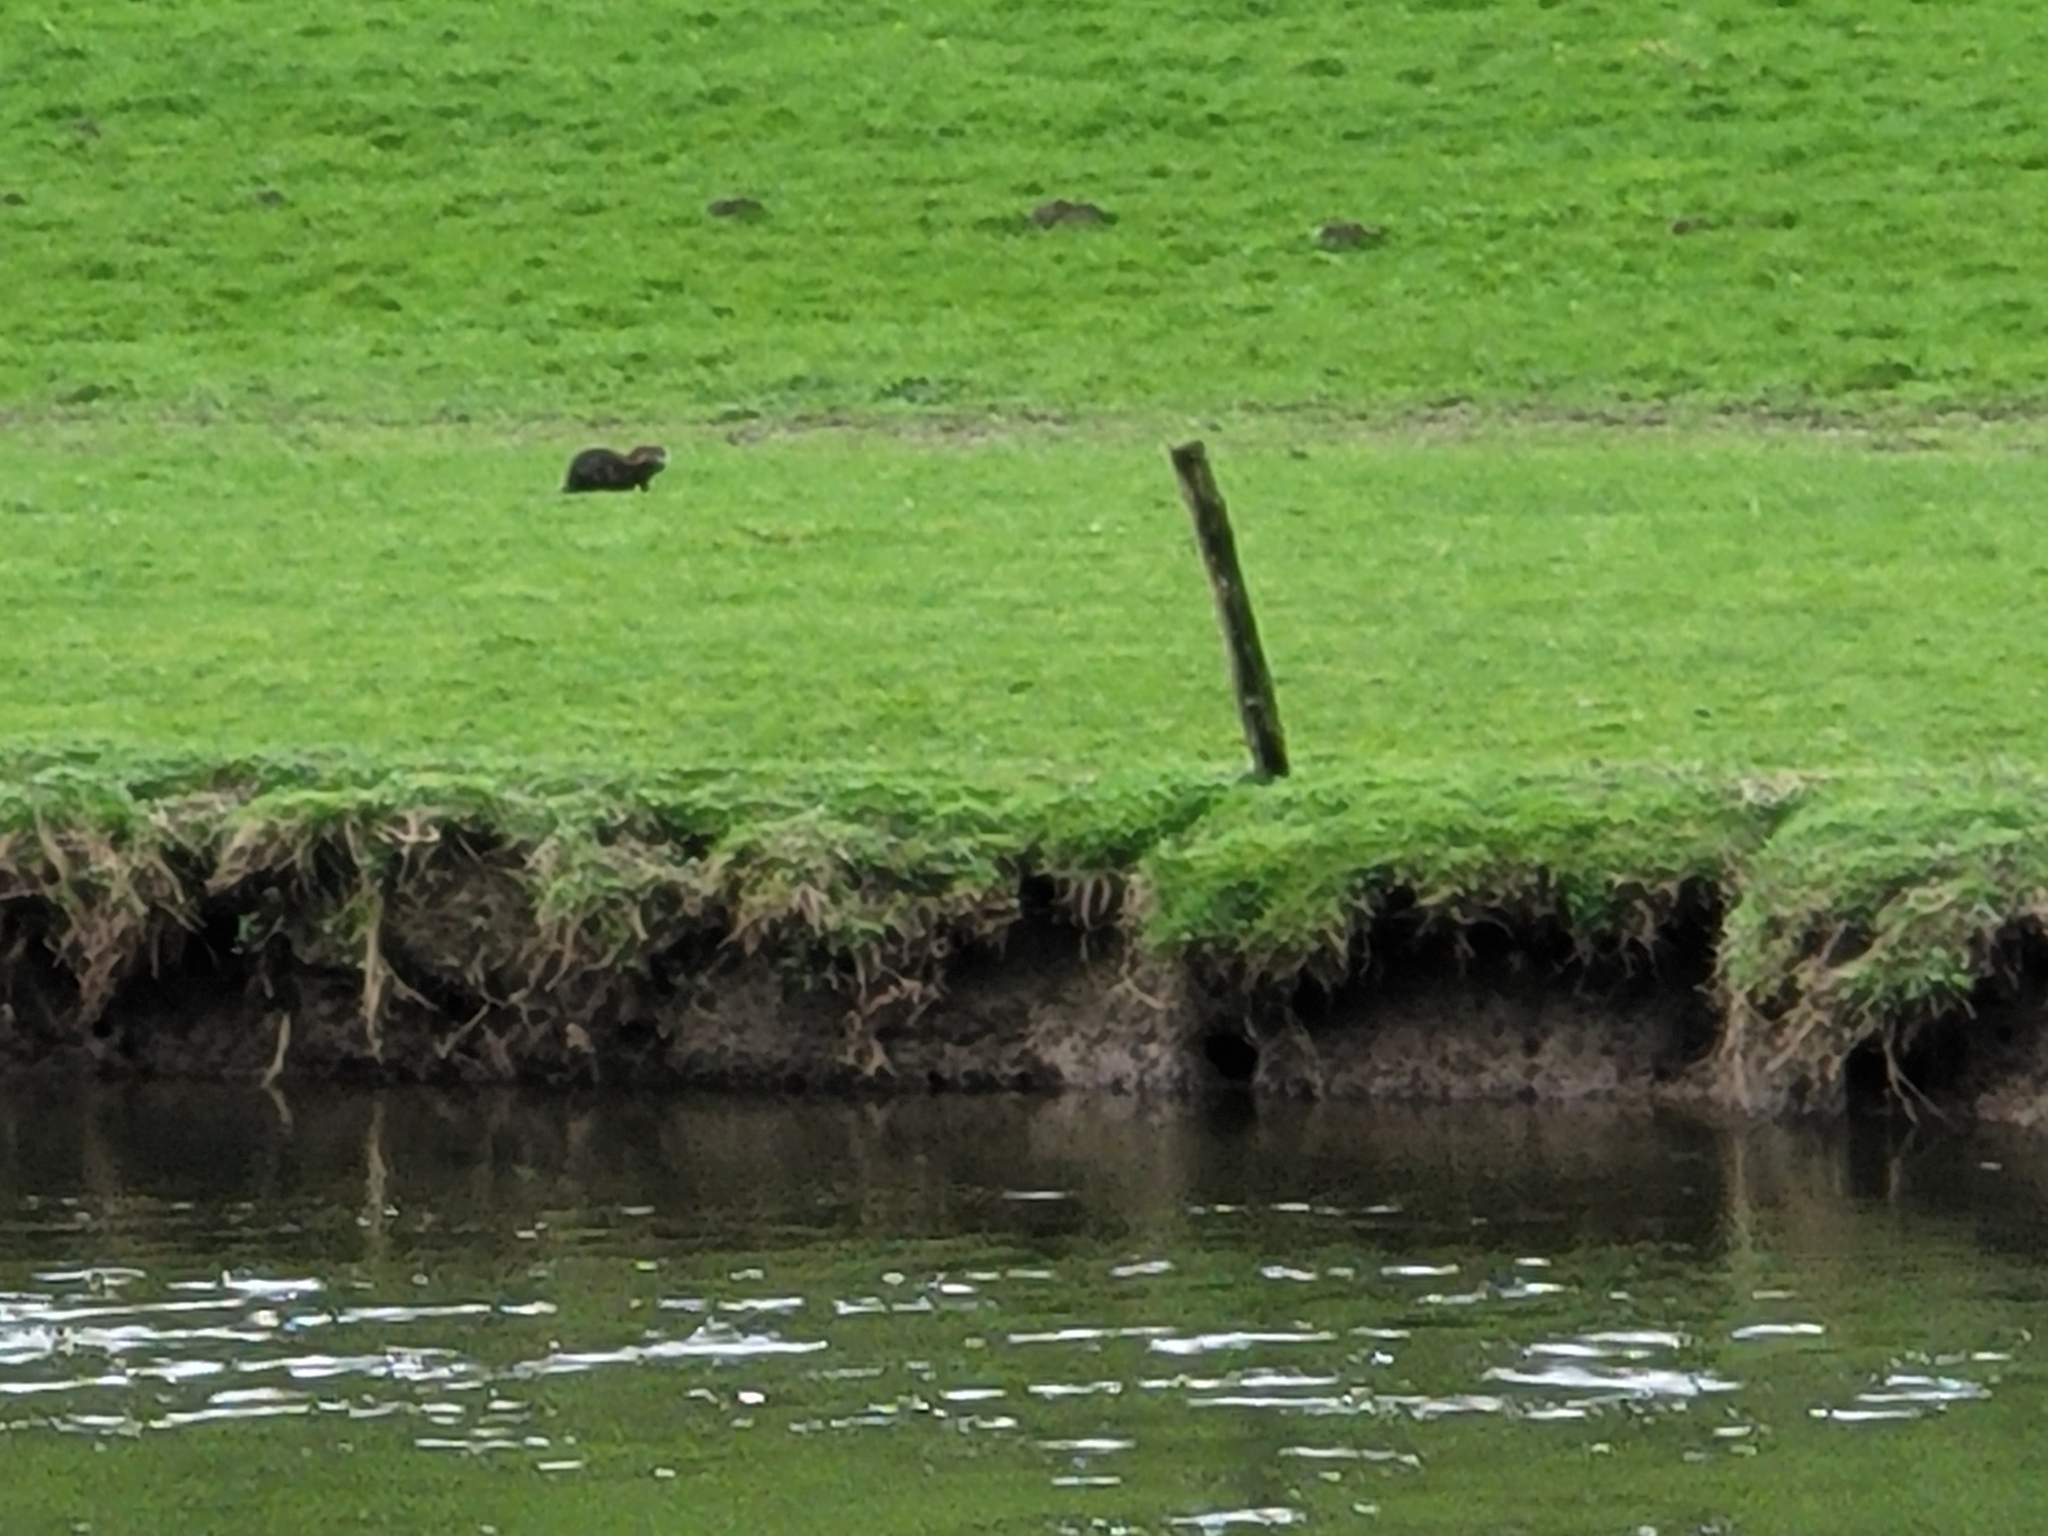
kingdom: Animalia
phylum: Chordata
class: Mammalia
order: Rodentia
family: Myocastoridae
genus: Myocastor
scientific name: Myocastor coypus
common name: Coypu
